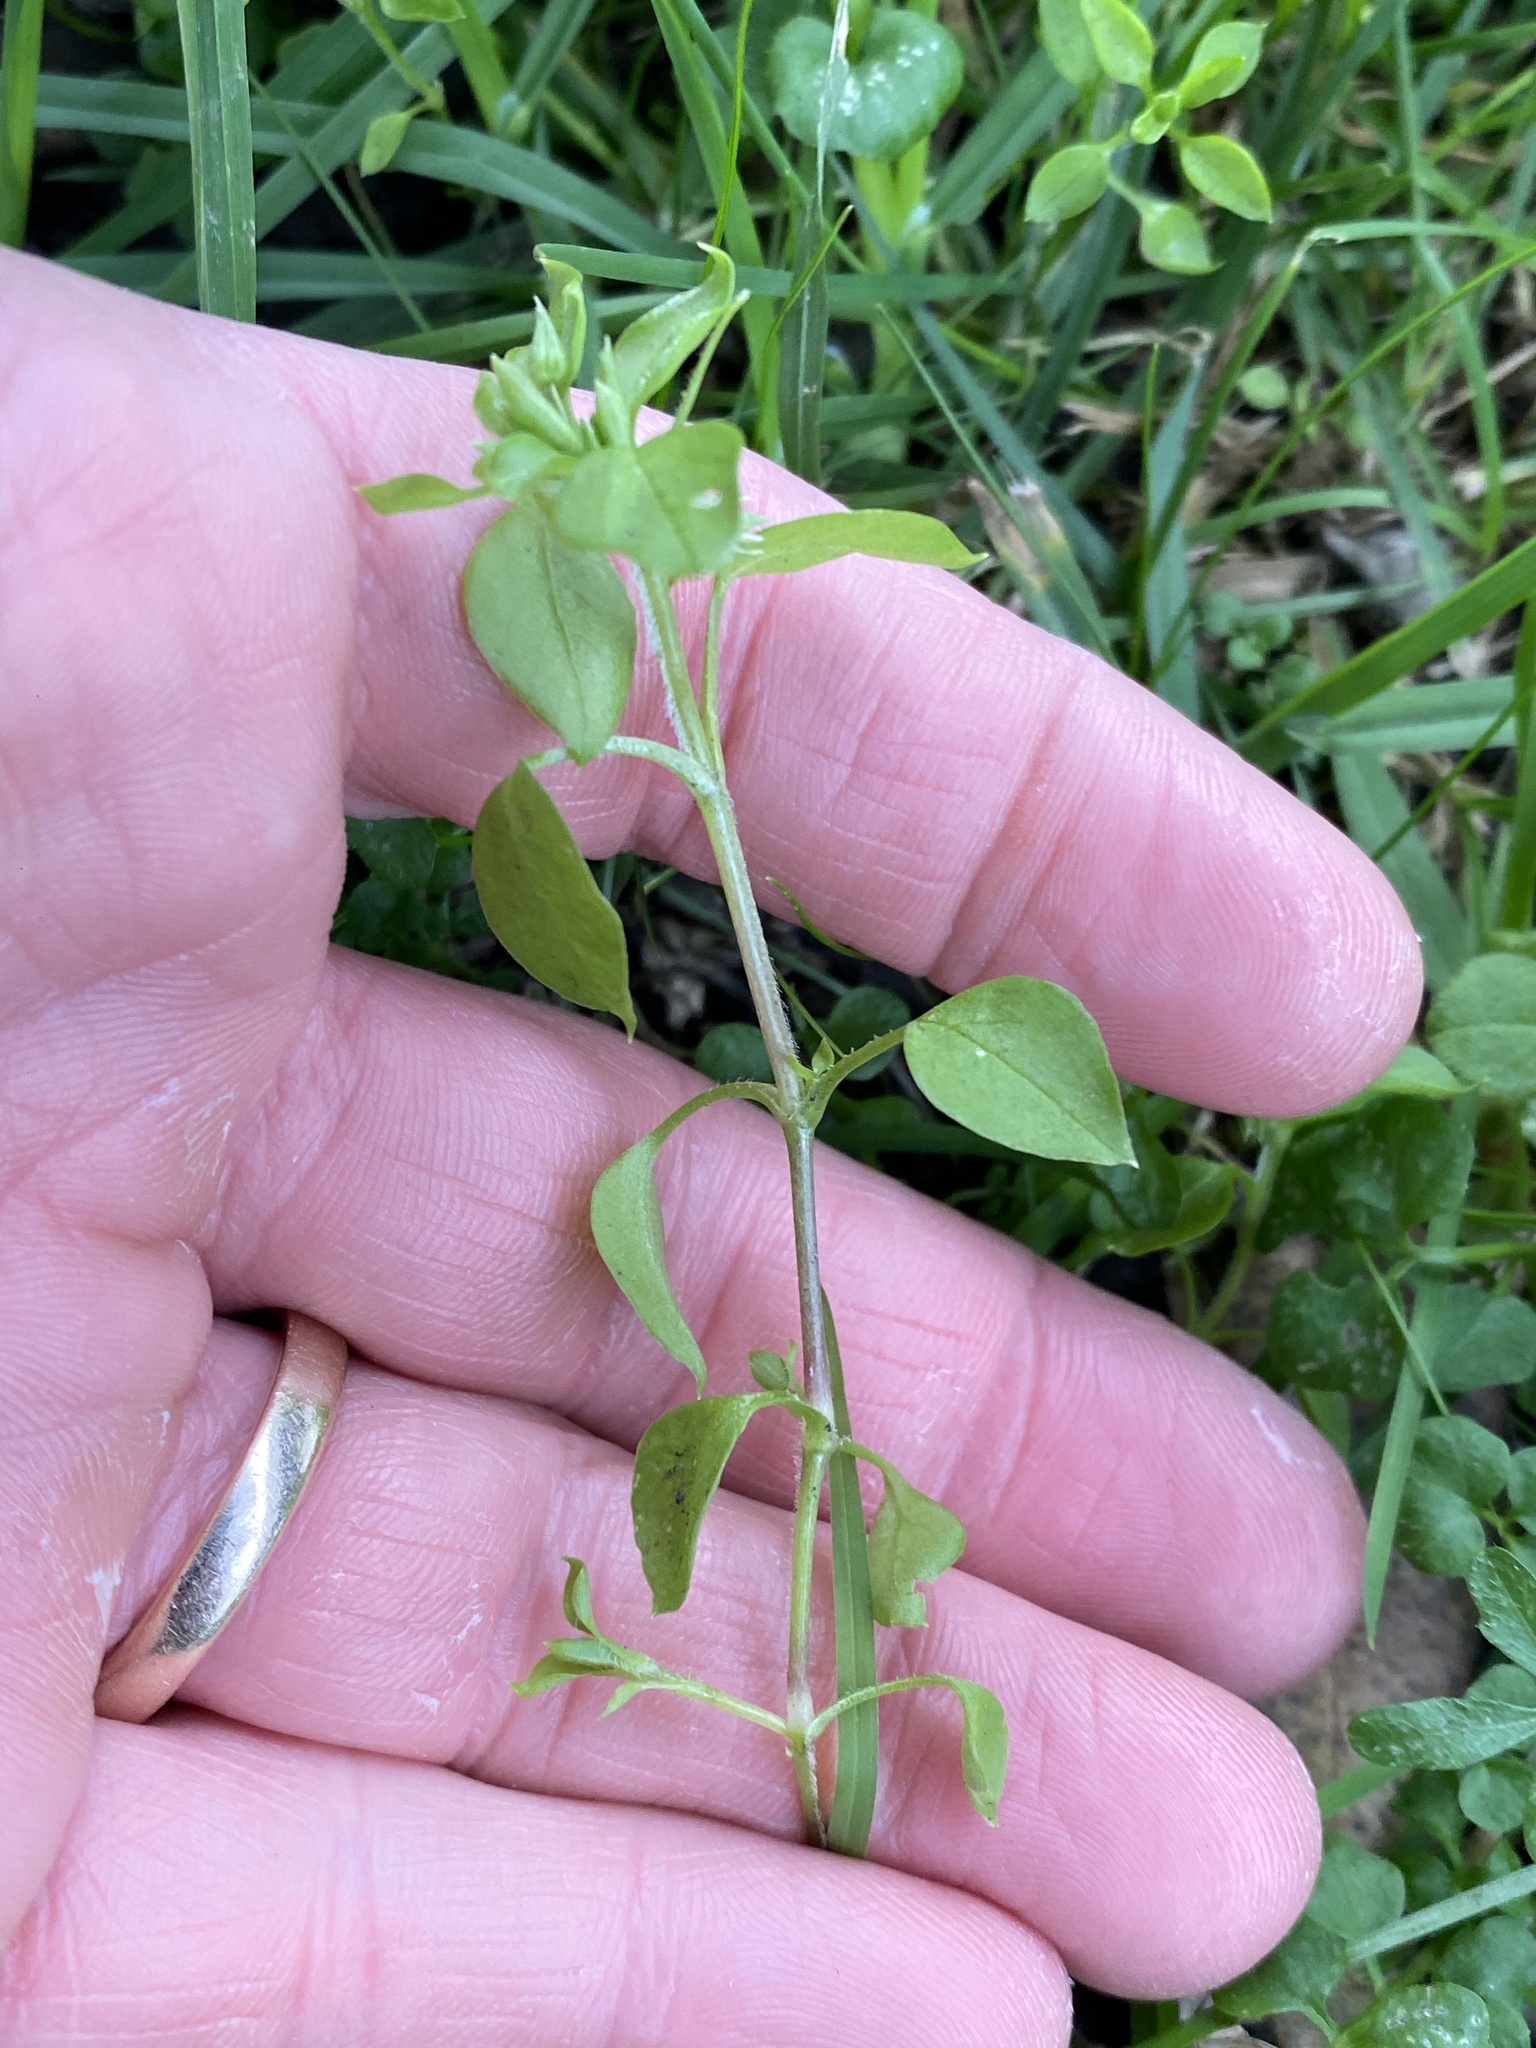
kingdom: Plantae
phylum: Tracheophyta
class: Magnoliopsida
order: Caryophyllales
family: Caryophyllaceae
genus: Stellaria
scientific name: Stellaria media
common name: Common chickweed
